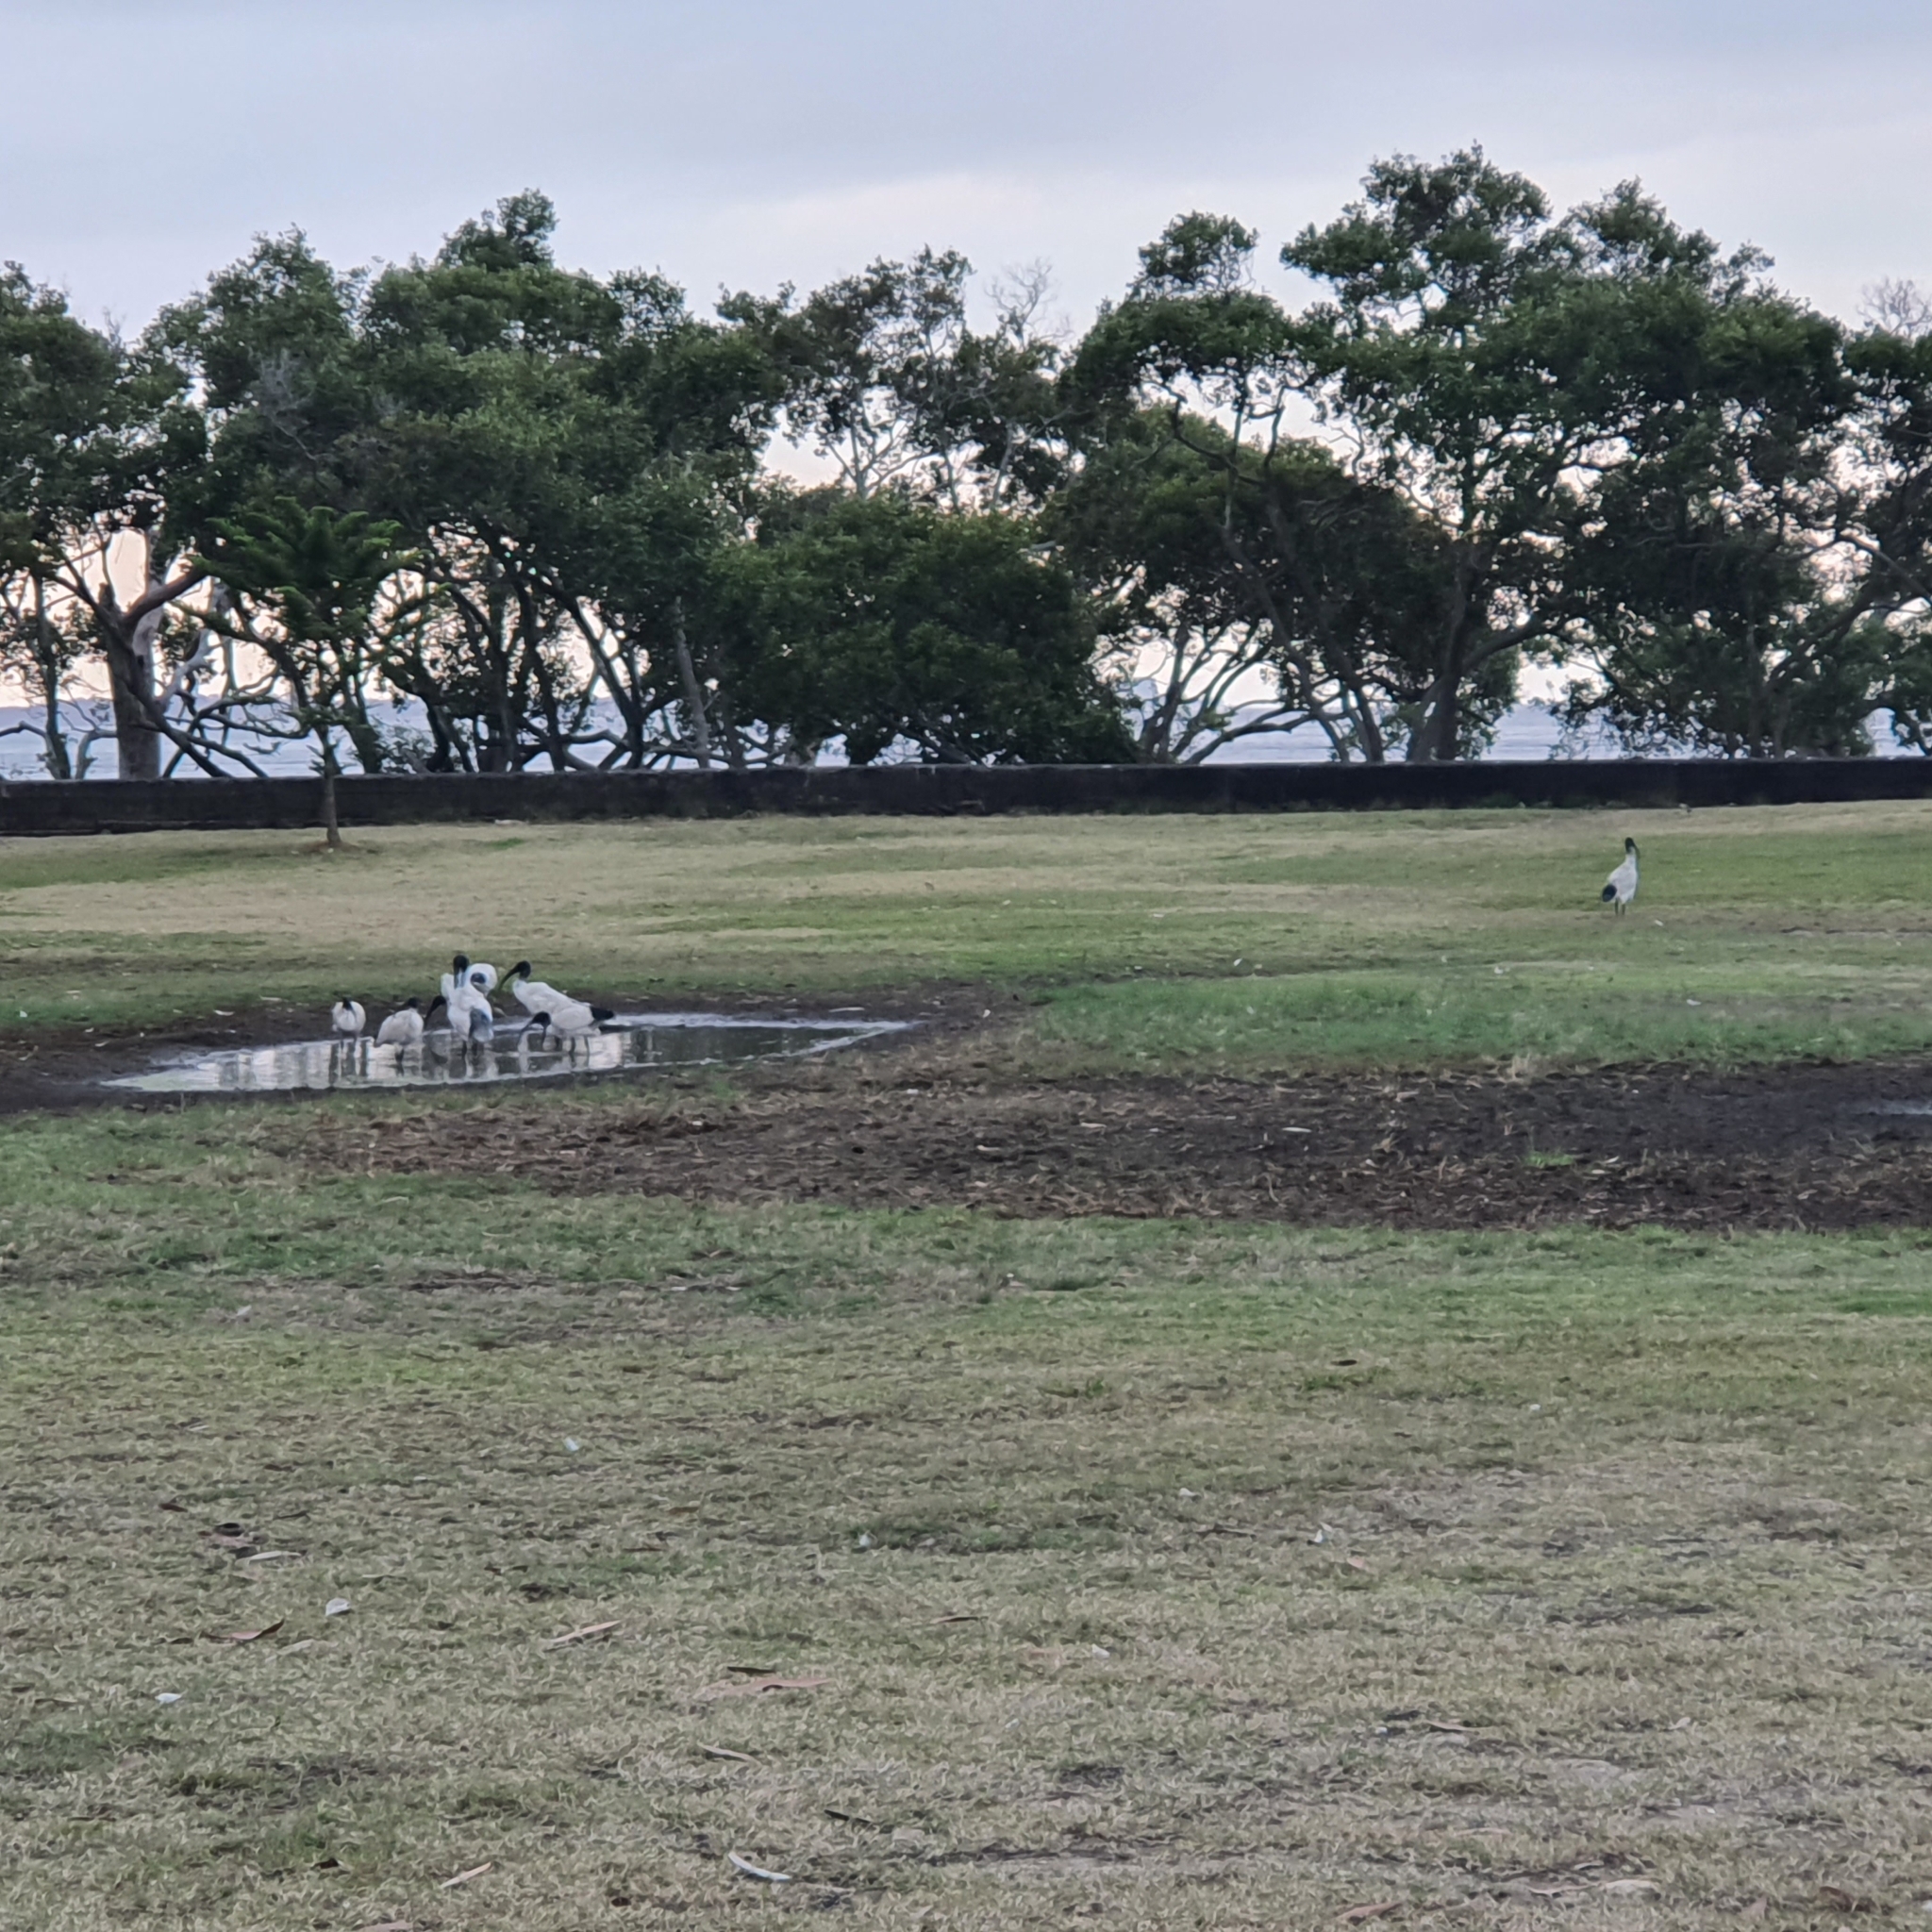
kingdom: Animalia
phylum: Chordata
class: Aves
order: Pelecaniformes
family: Threskiornithidae
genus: Threskiornis
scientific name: Threskiornis molucca
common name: Australian white ibis
